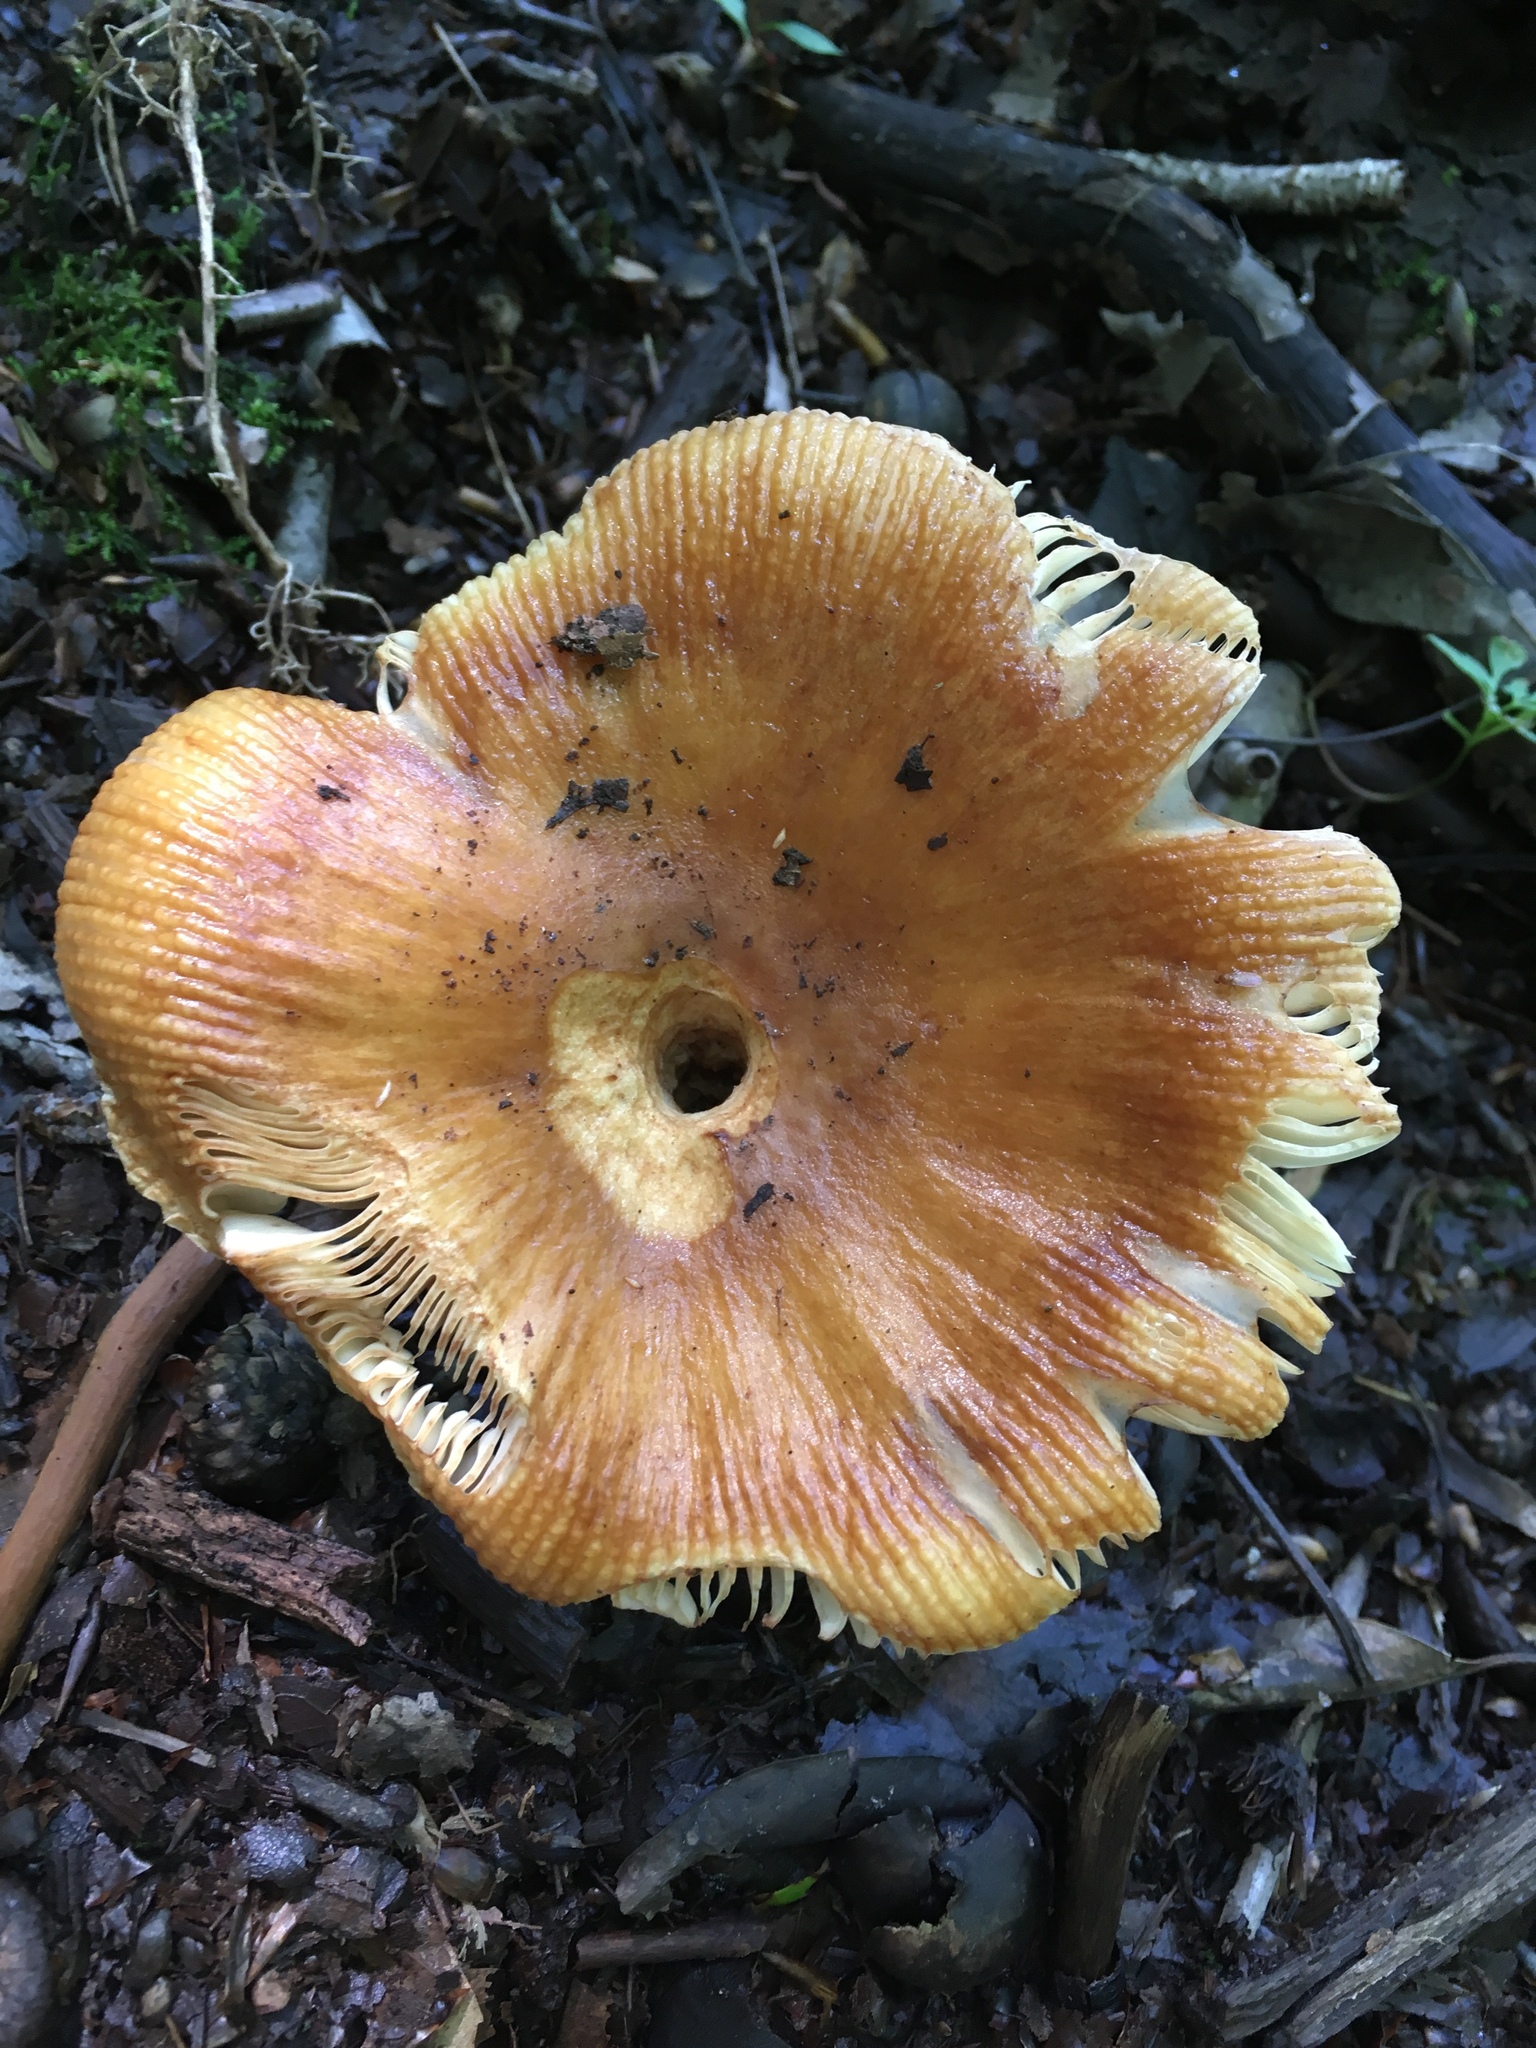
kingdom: Fungi
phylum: Basidiomycota
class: Agaricomycetes
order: Russulales
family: Russulaceae
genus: Russula
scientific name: Russula fragrantissima
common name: Almond-scented russula
